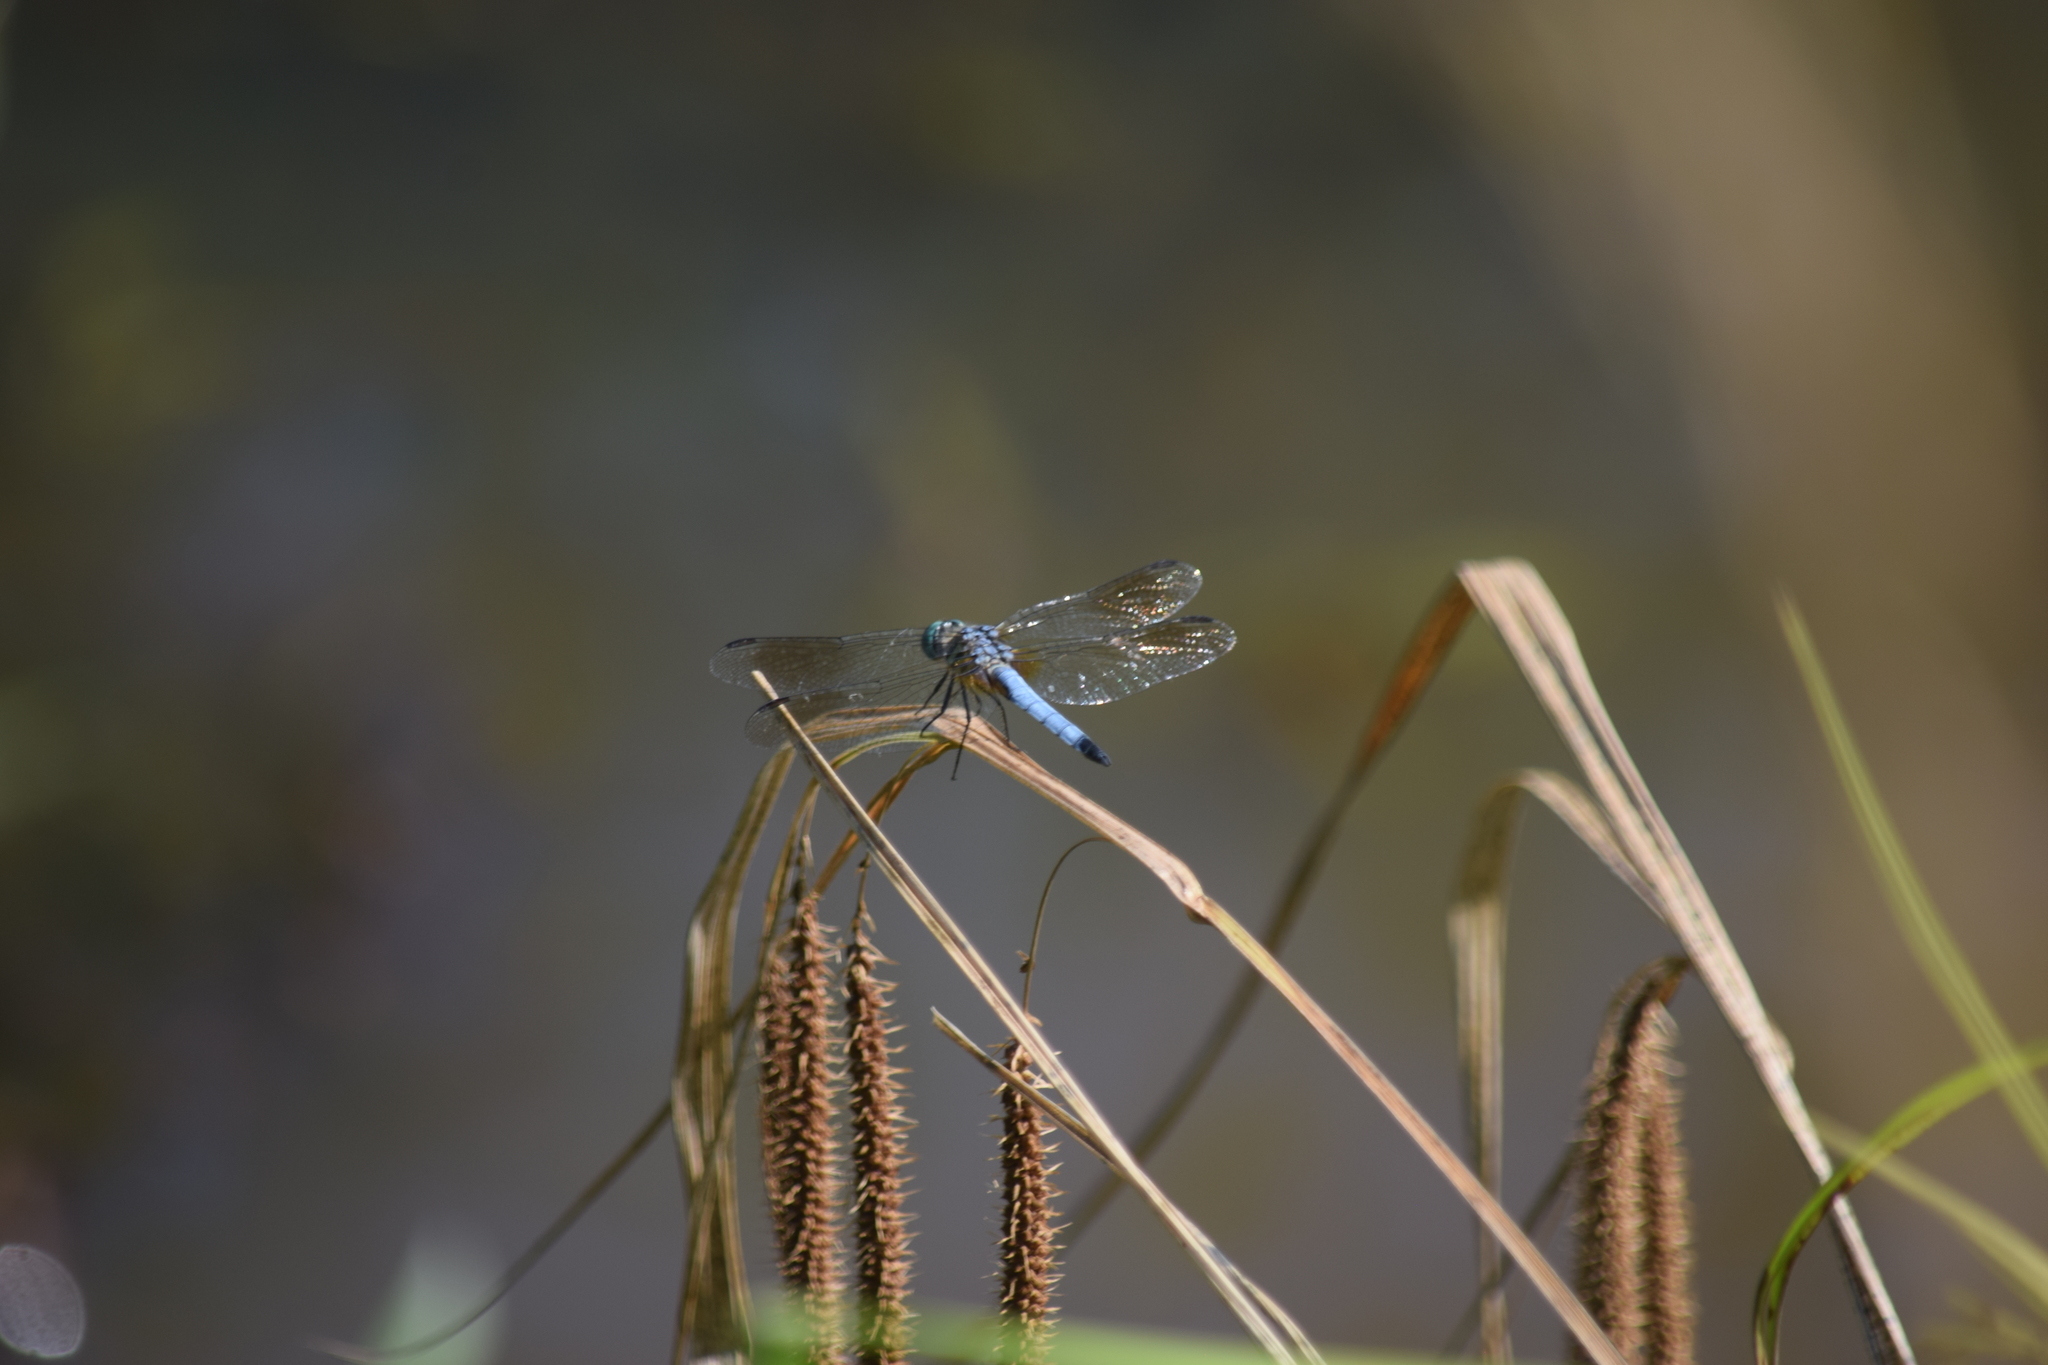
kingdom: Animalia
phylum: Arthropoda
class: Insecta
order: Odonata
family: Libellulidae
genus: Pachydiplax
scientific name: Pachydiplax longipennis
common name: Blue dasher
